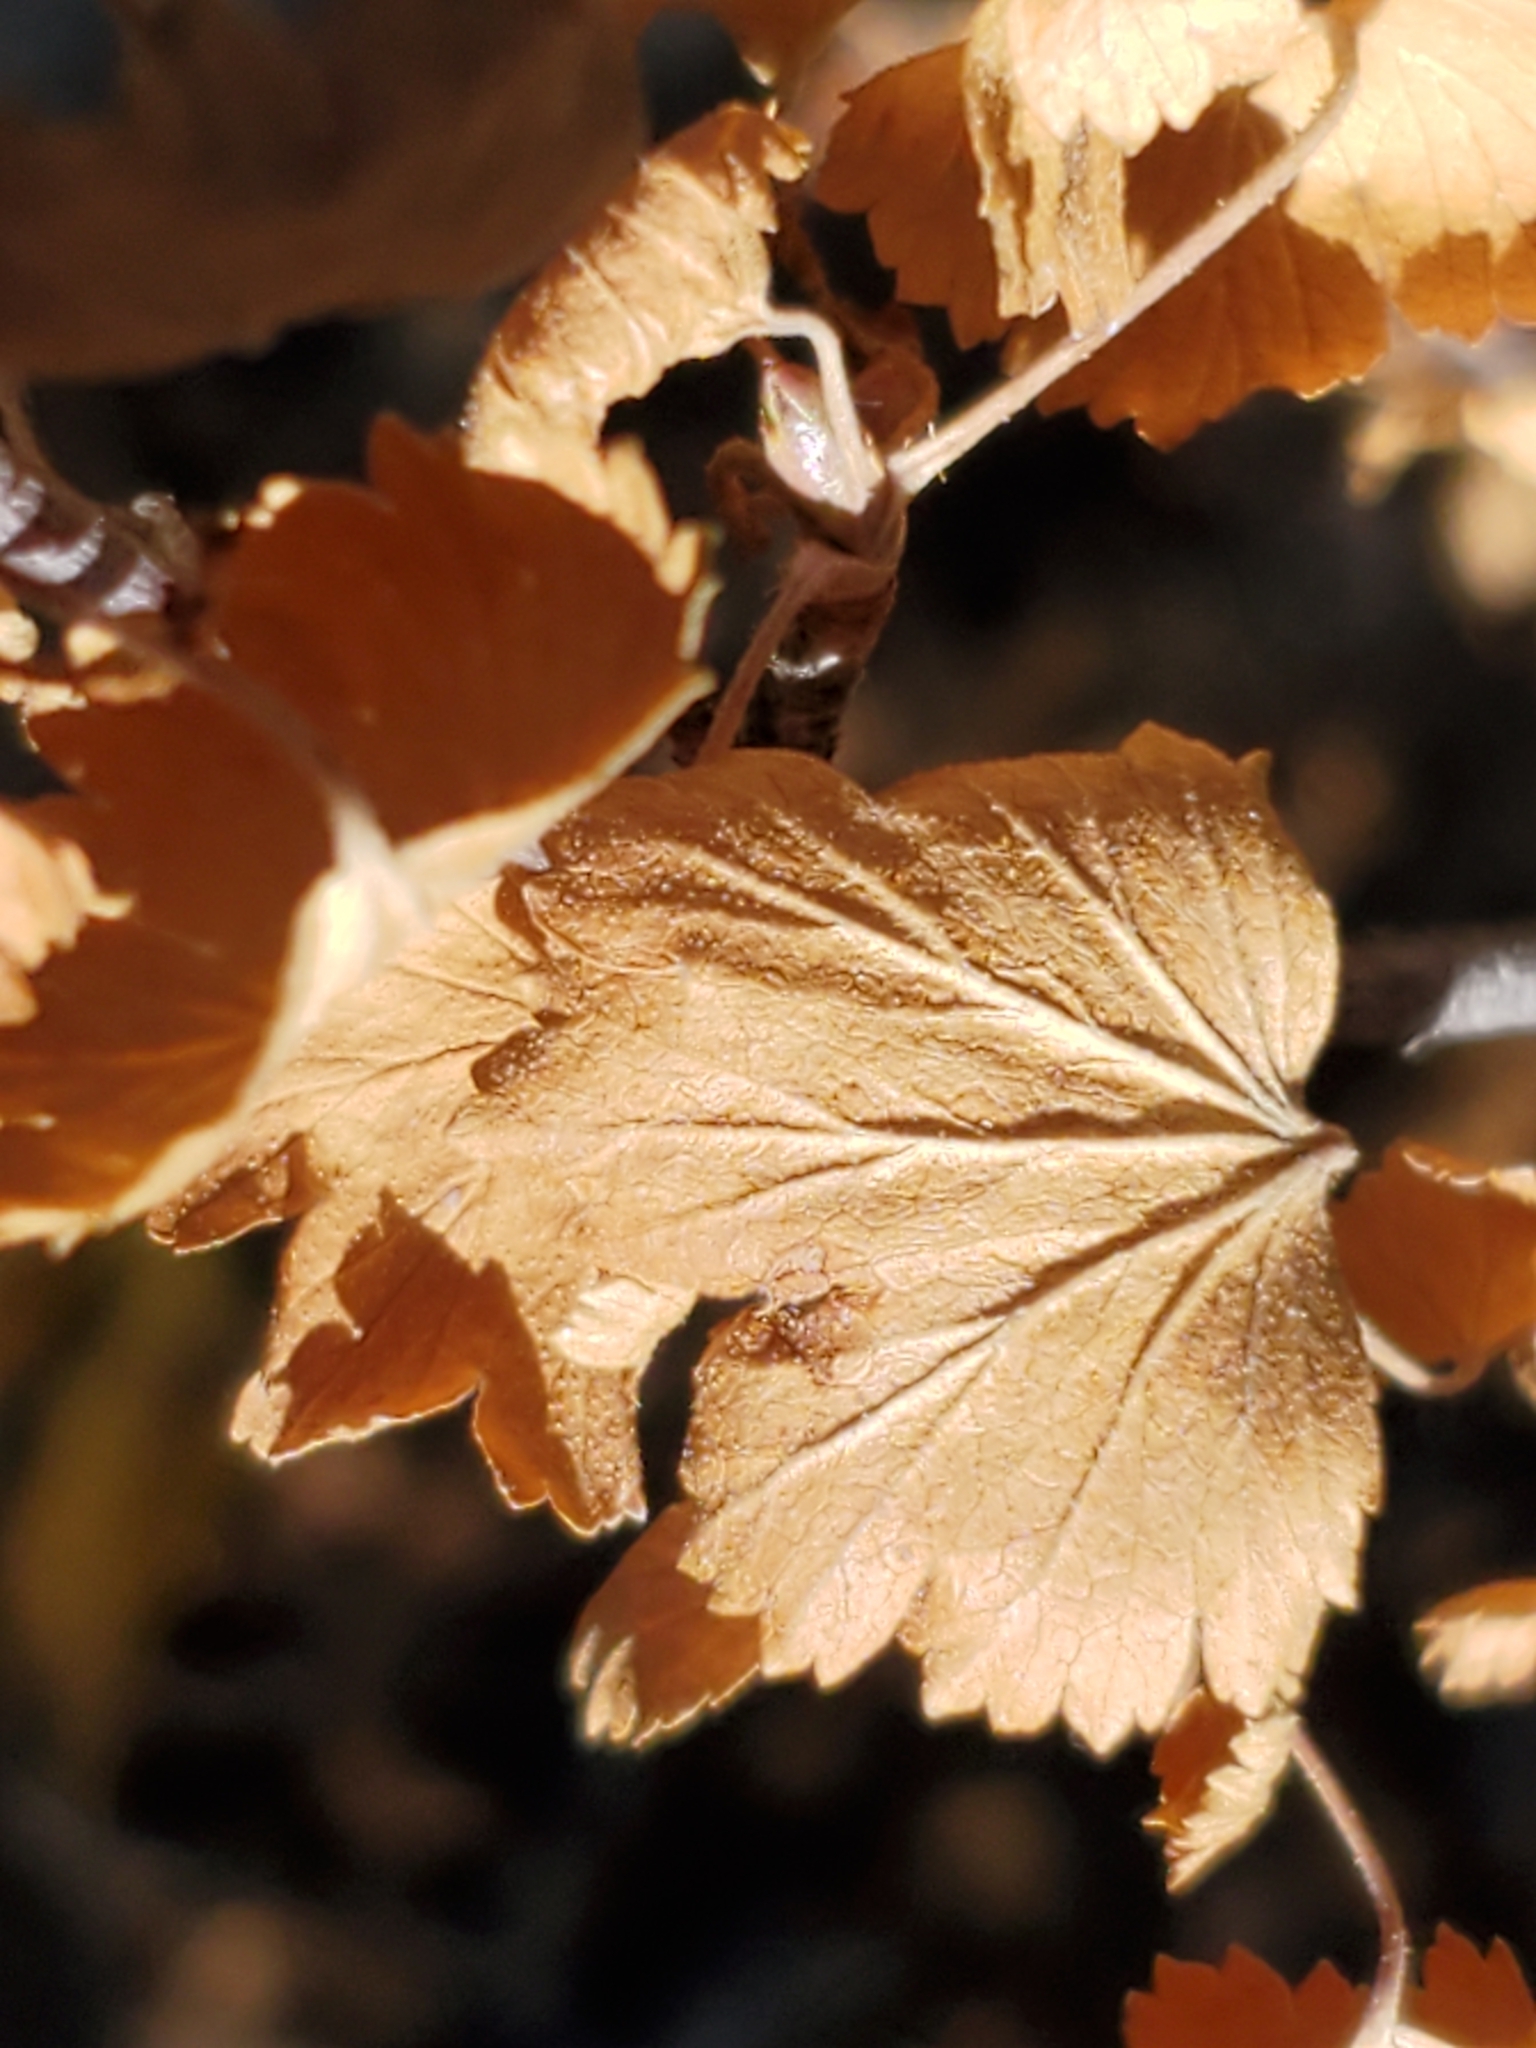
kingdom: Plantae
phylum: Tracheophyta
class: Magnoliopsida
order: Saxifragales
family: Grossulariaceae
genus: Ribes
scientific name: Ribes cereum
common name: Wax currant
